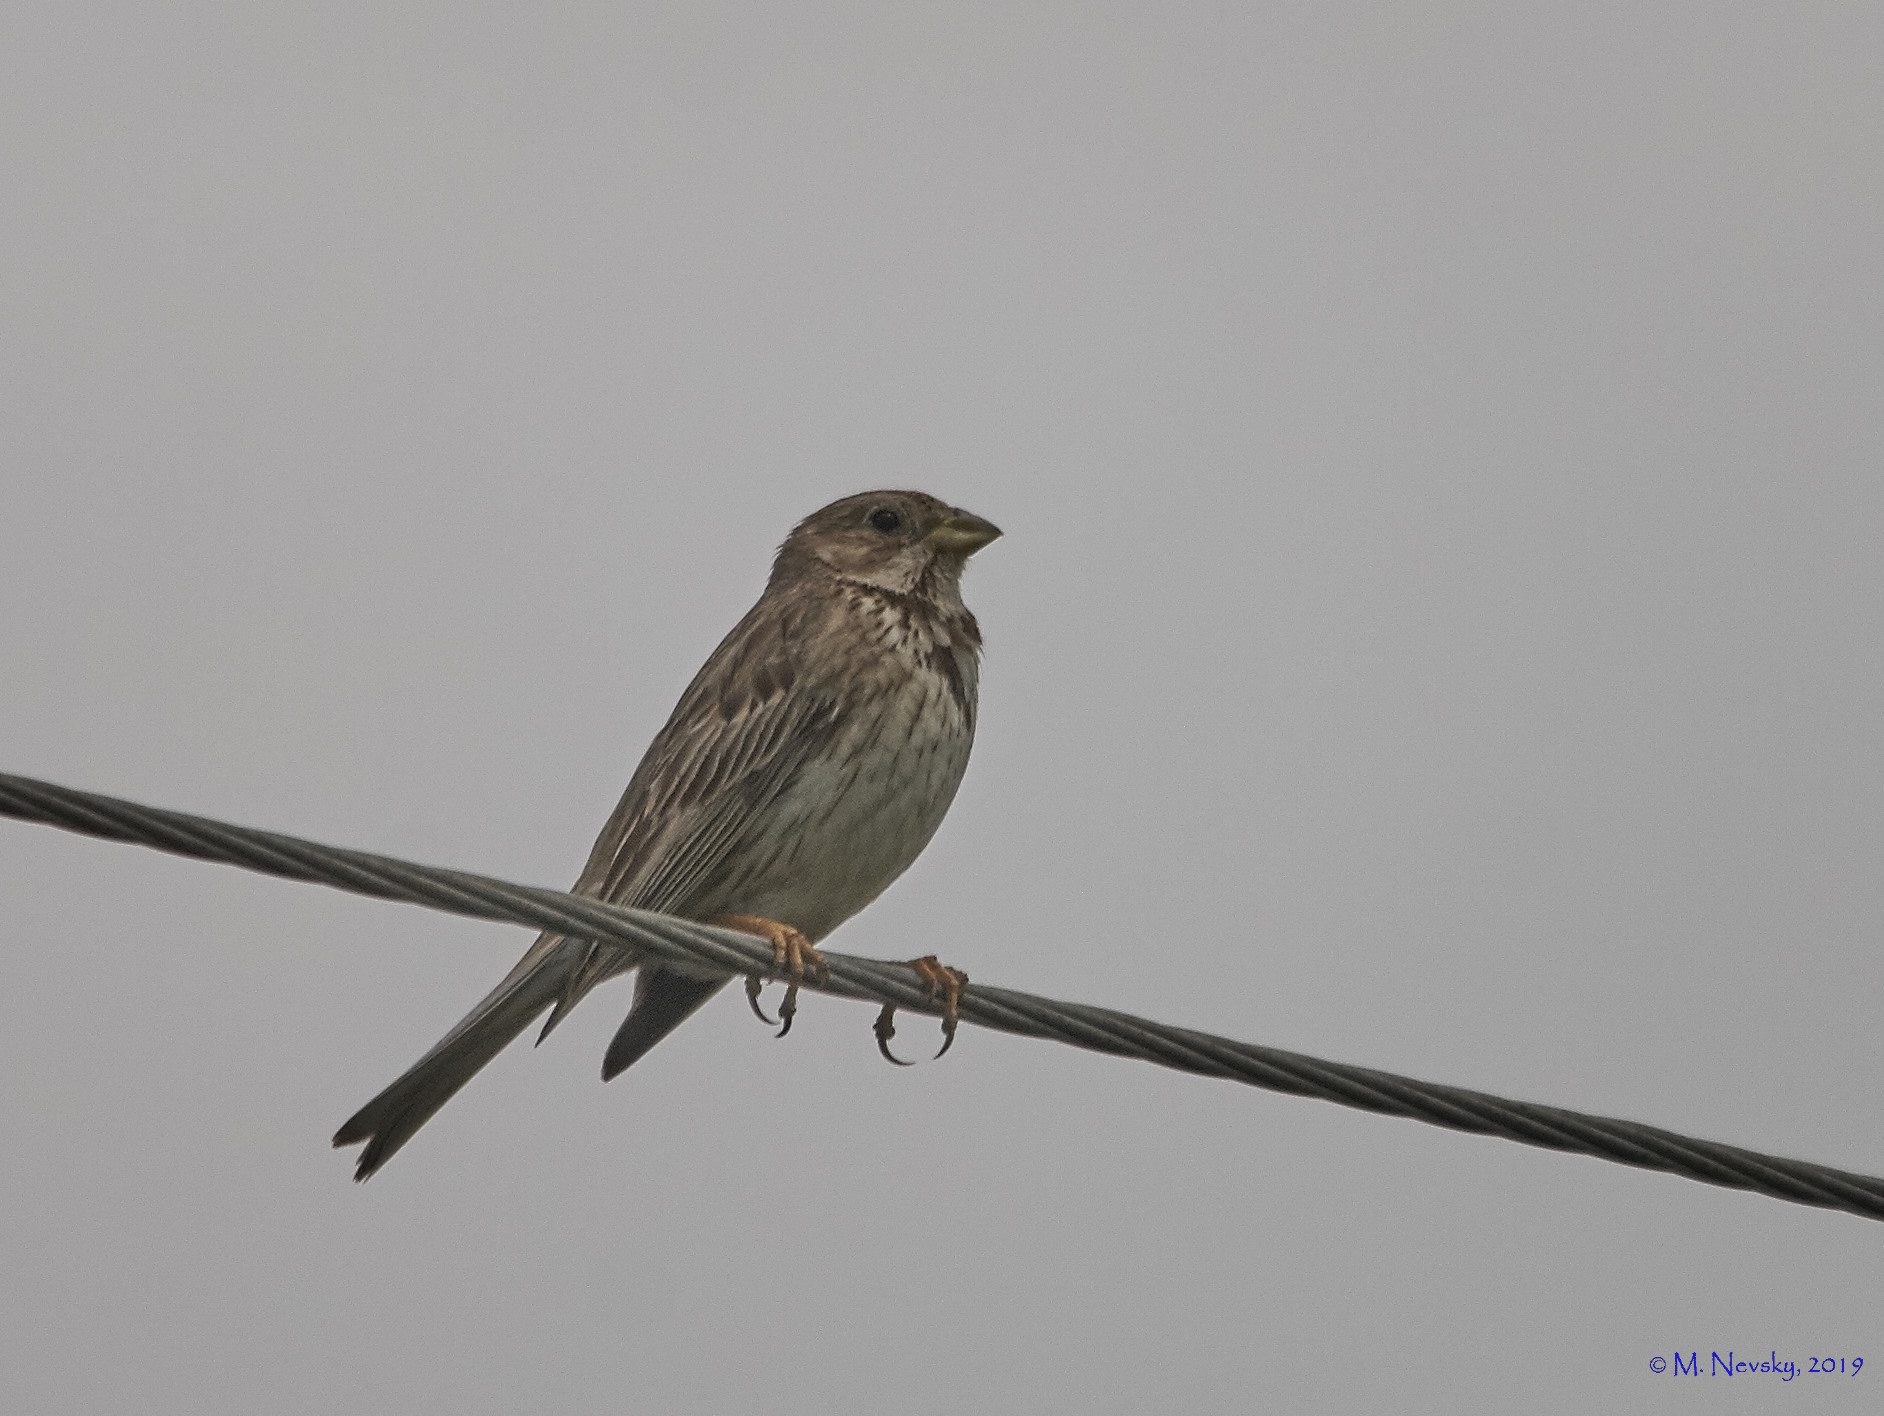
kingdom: Animalia
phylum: Chordata
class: Aves
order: Passeriformes
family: Emberizidae
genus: Emberiza
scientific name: Emberiza calandra
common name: Corn bunting
